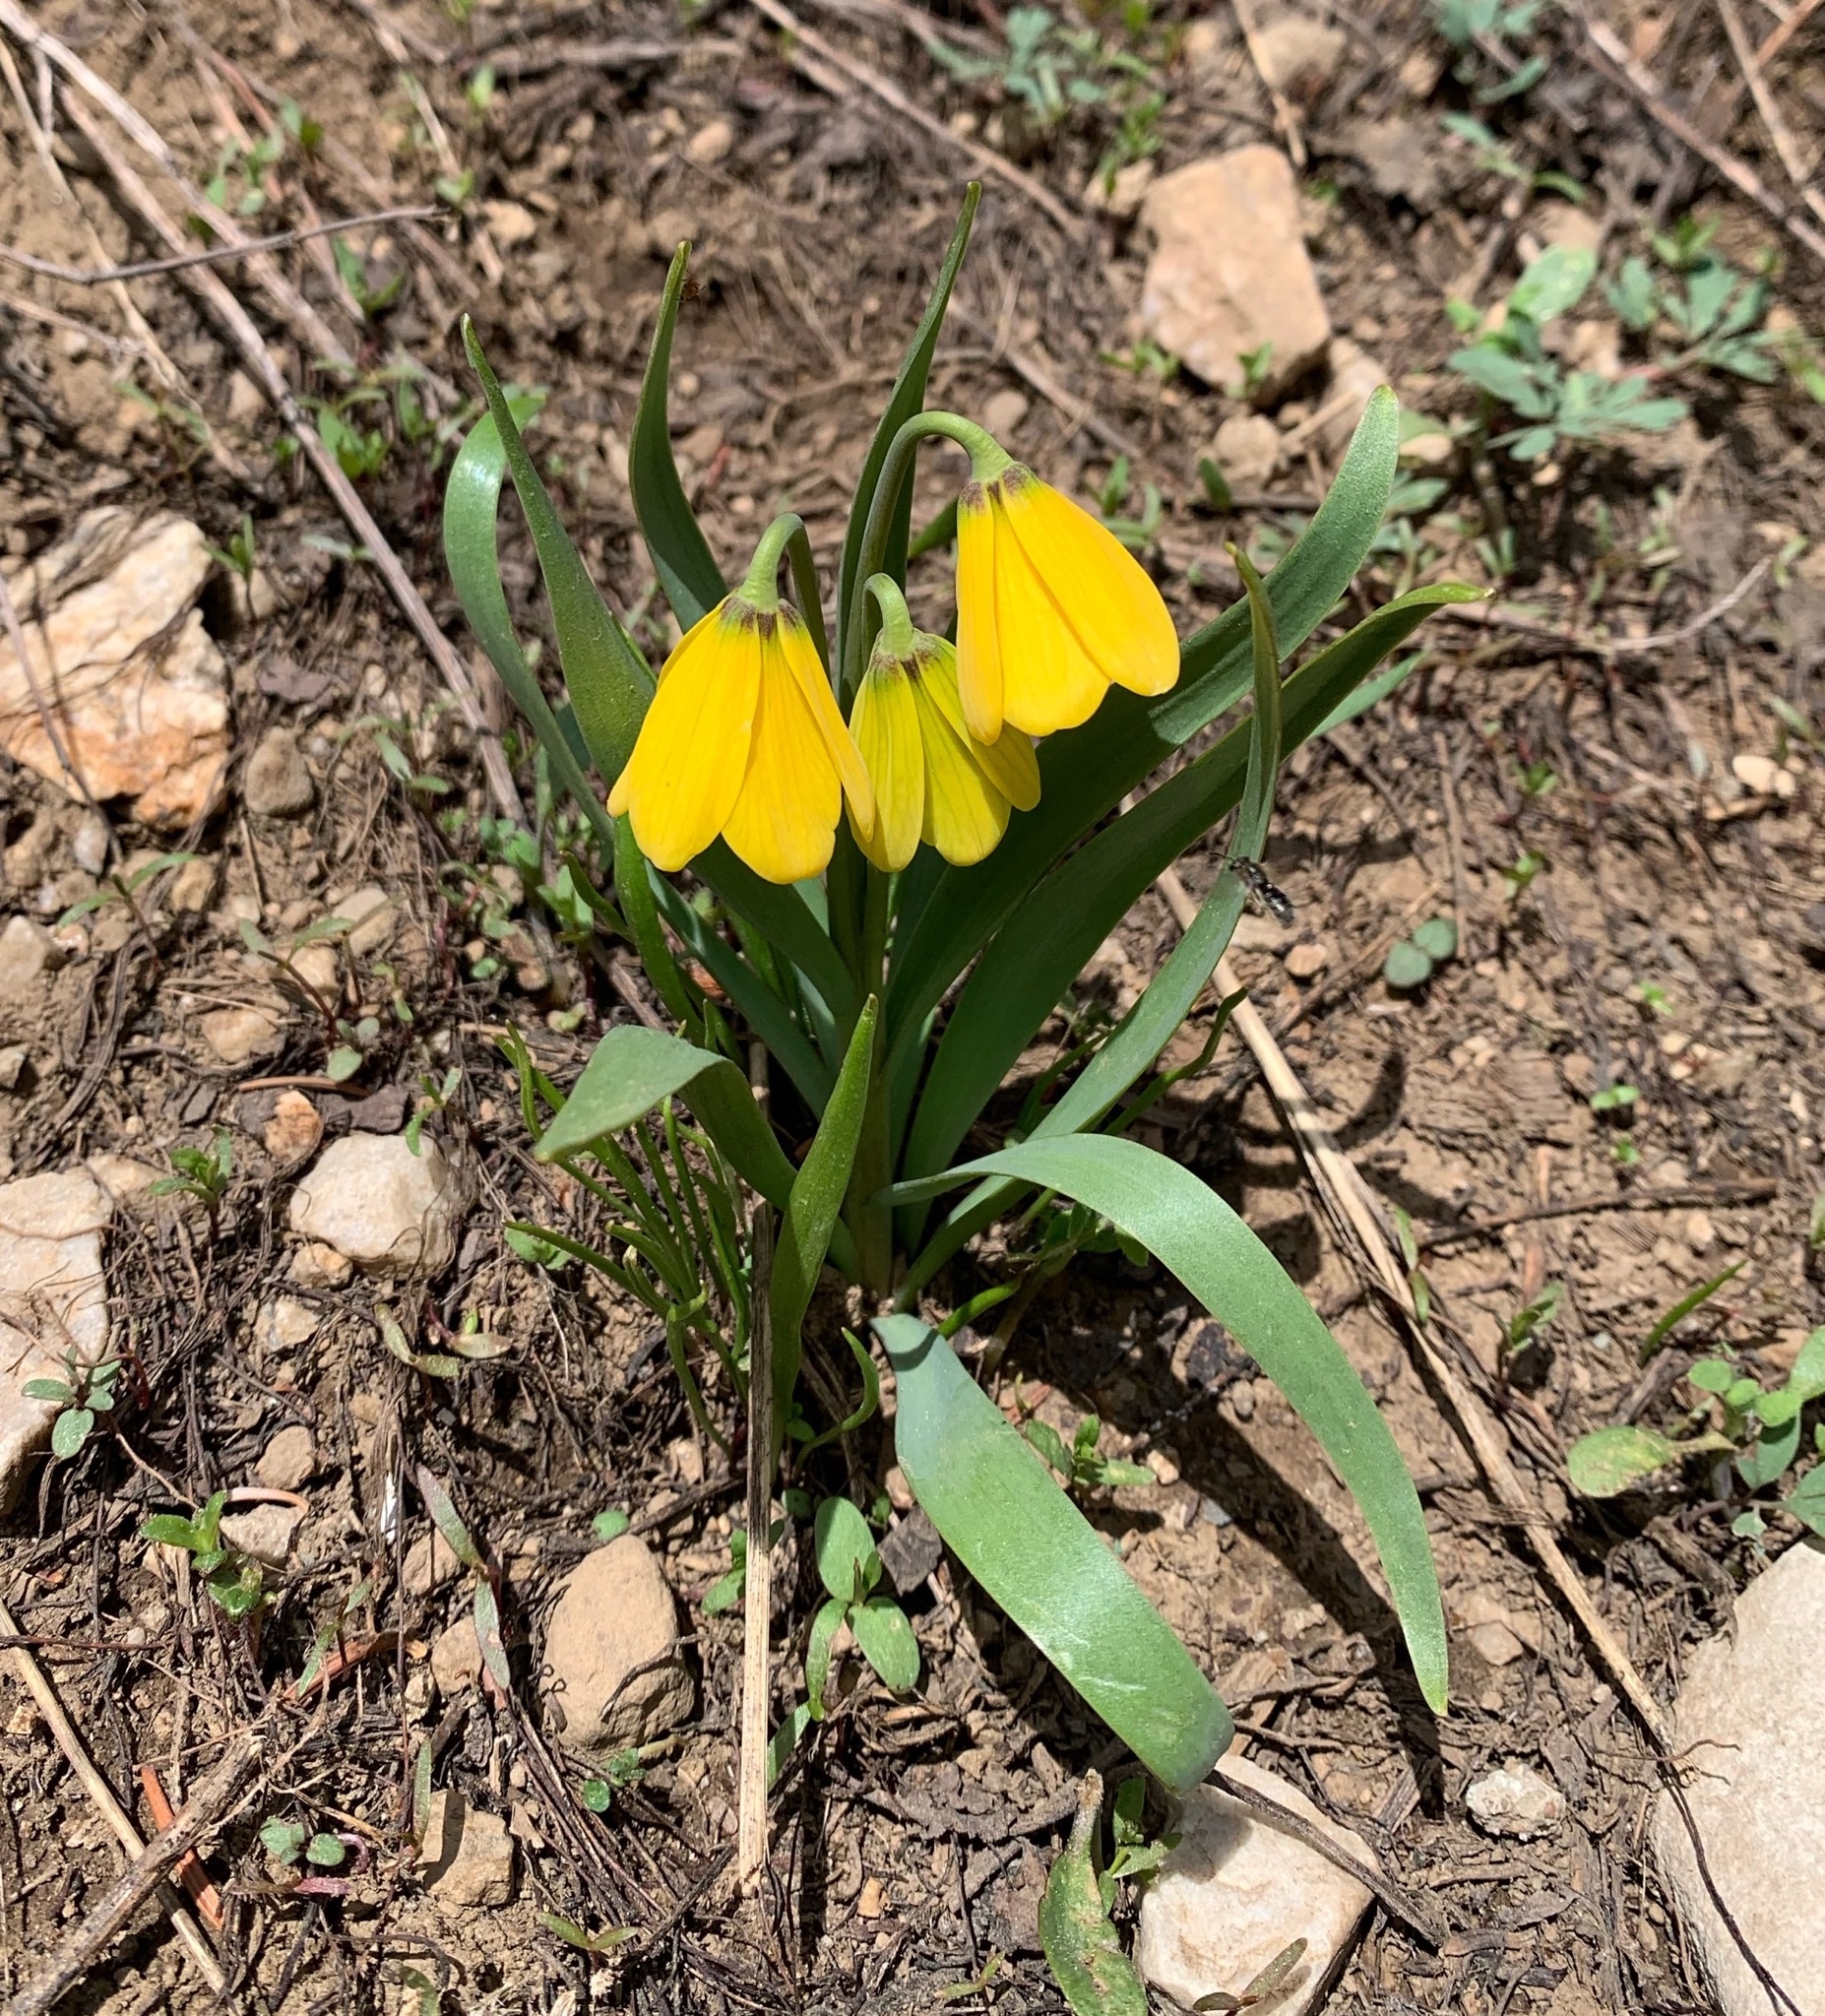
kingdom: Plantae
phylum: Tracheophyta
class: Liliopsida
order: Liliales
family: Liliaceae
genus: Fritillaria
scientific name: Fritillaria pudica
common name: Yellow fritillary
